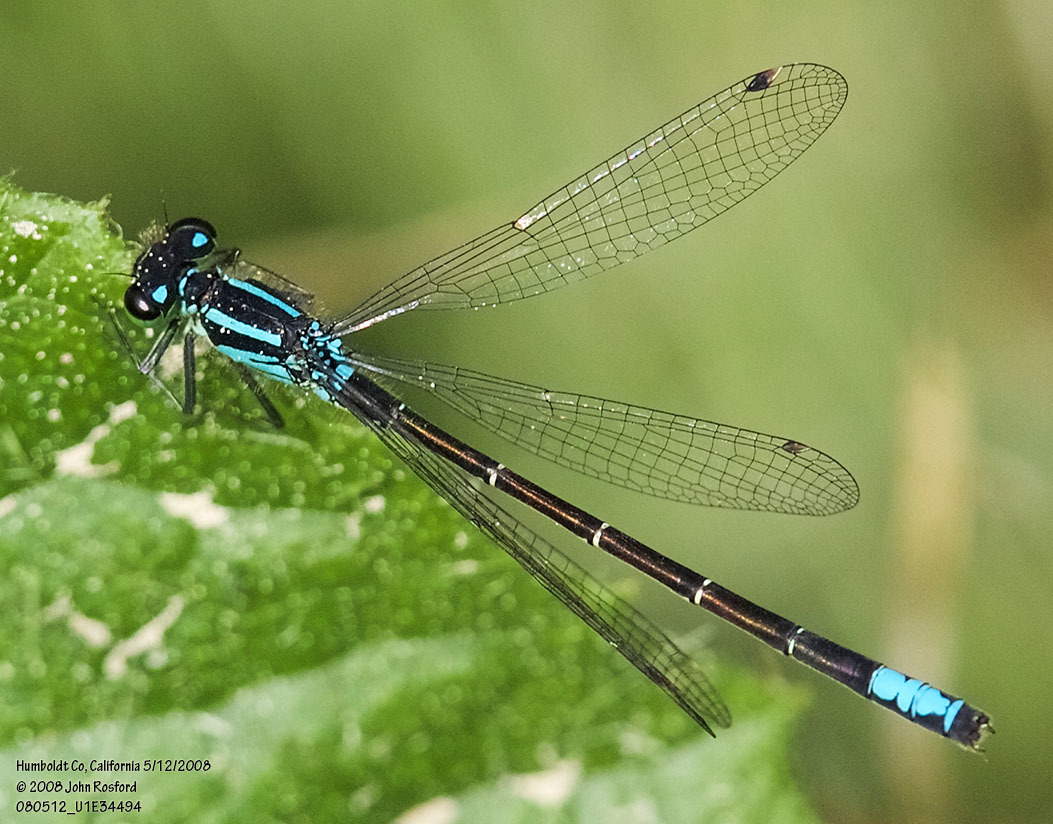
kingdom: Animalia
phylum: Arthropoda
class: Insecta
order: Odonata
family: Coenagrionidae
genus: Ischnura
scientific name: Ischnura erratica
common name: Swift forktail
